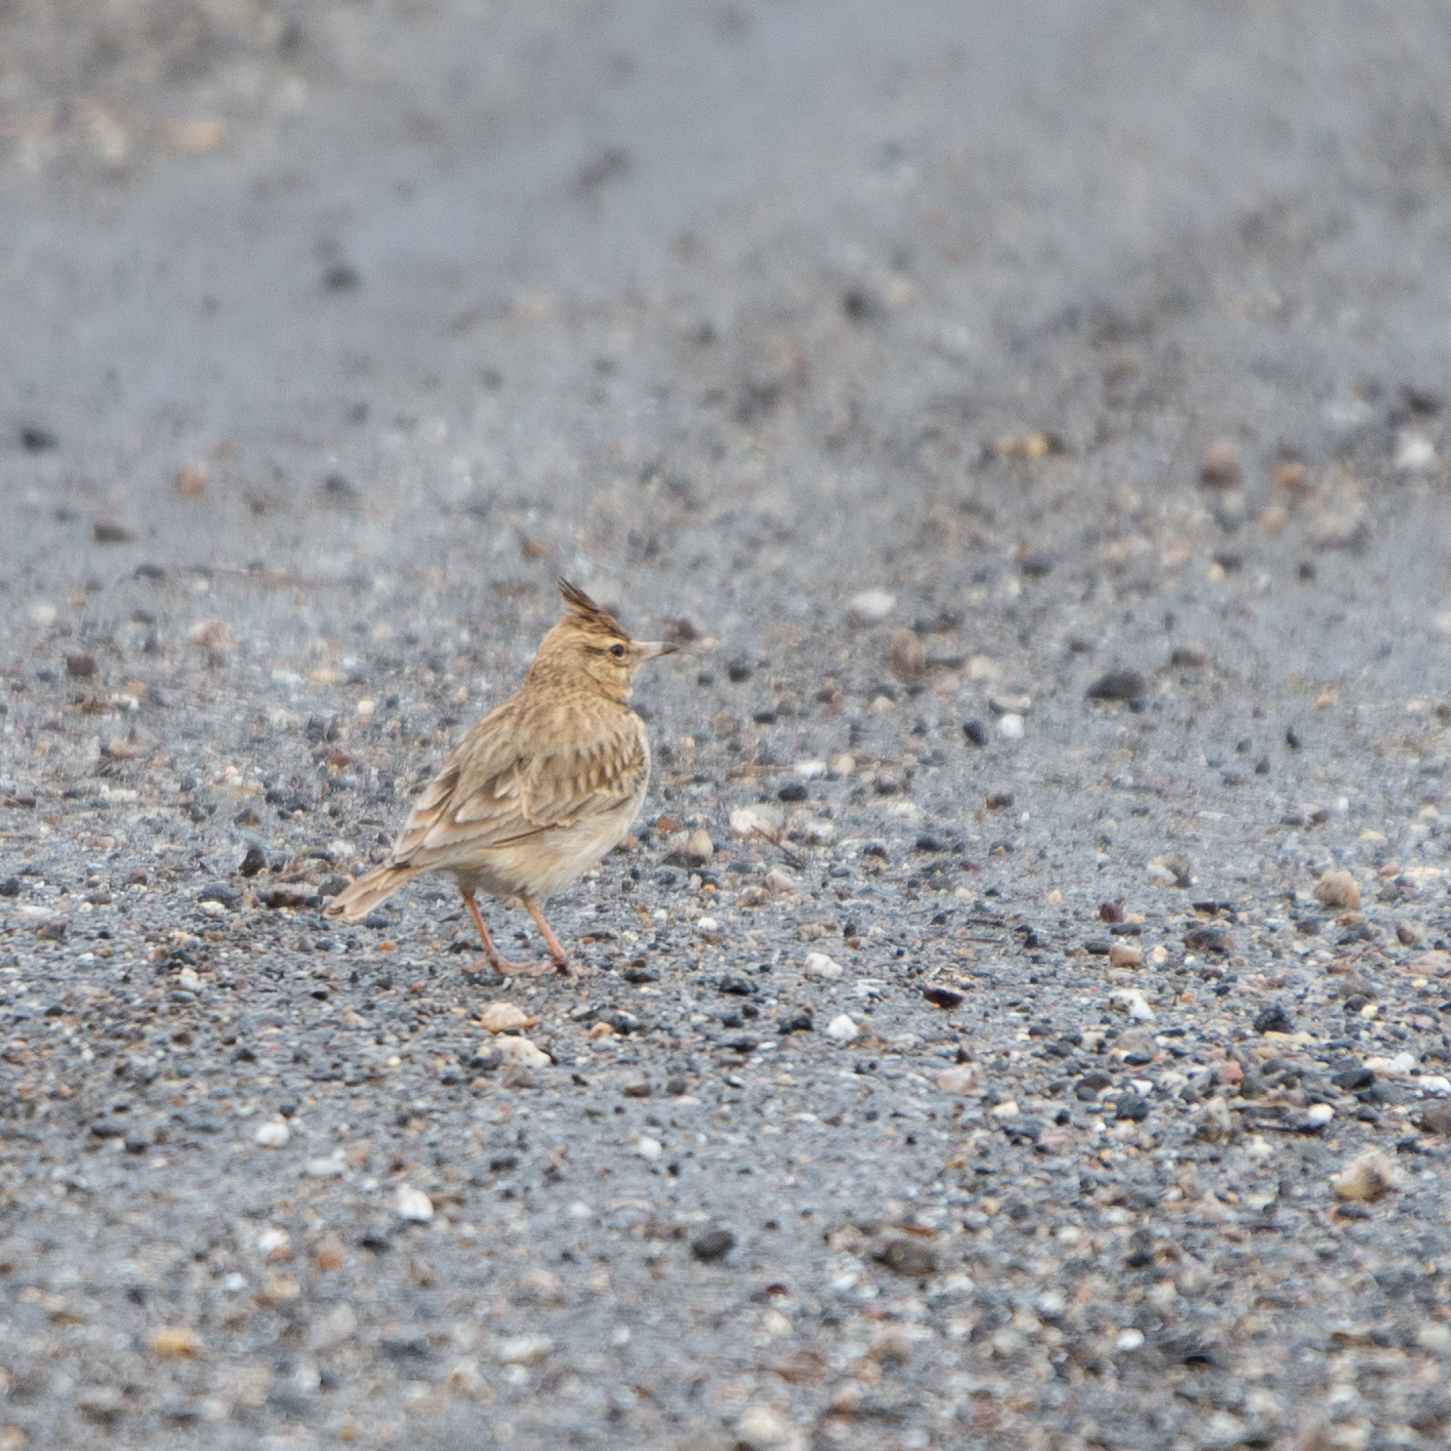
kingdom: Animalia
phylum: Chordata
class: Aves
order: Passeriformes
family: Alaudidae
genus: Galerida
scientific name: Galerida cristata
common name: Crested lark
